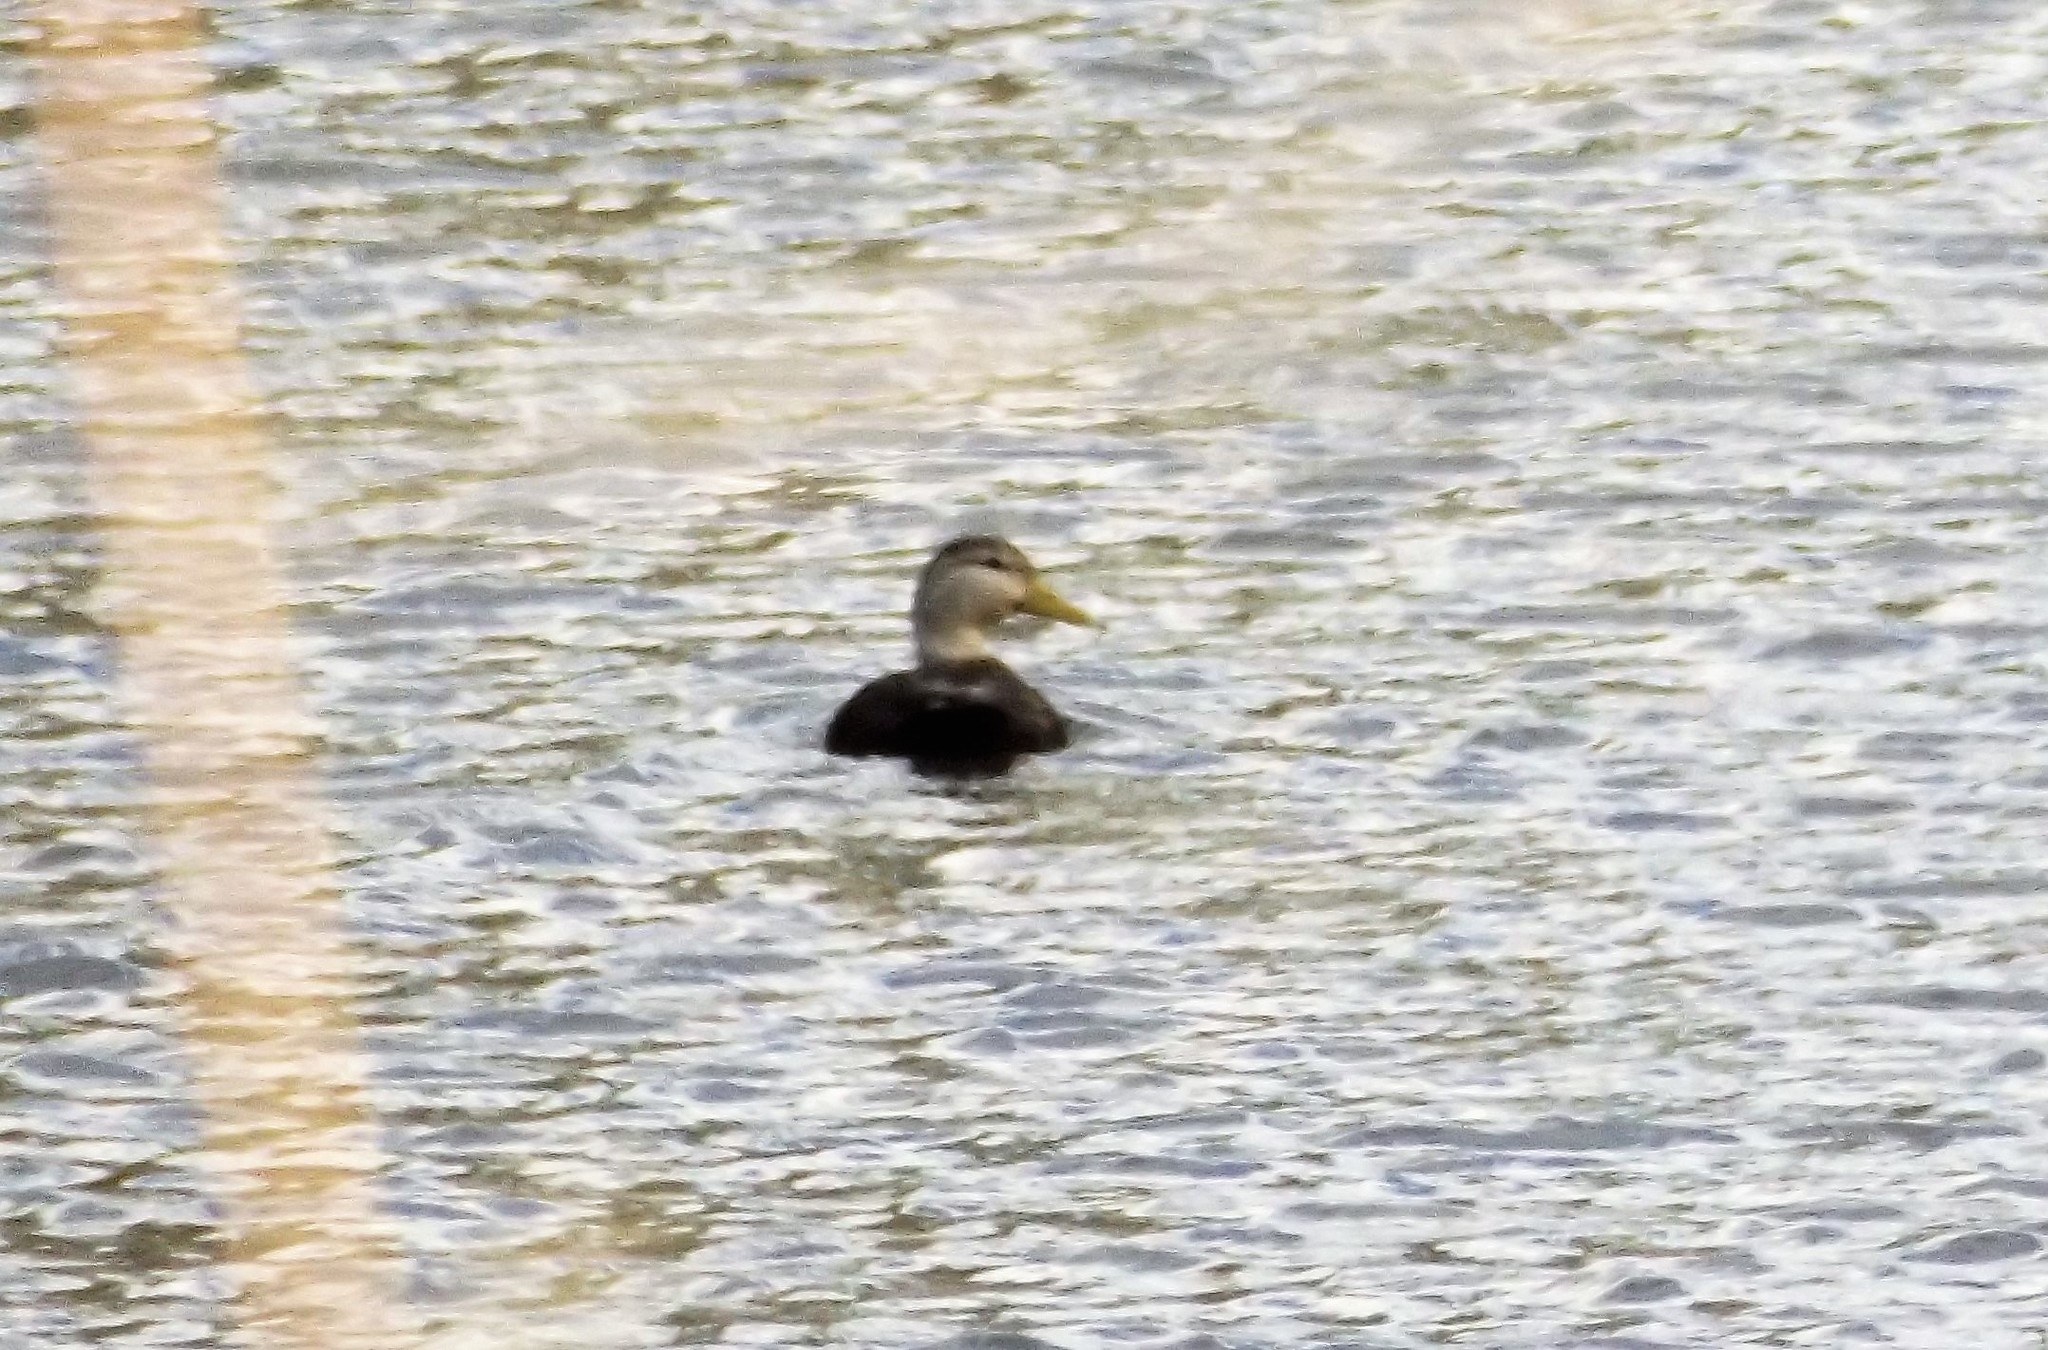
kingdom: Animalia
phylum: Chordata
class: Aves
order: Anseriformes
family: Anatidae
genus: Anas
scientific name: Anas rubripes
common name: American black duck
